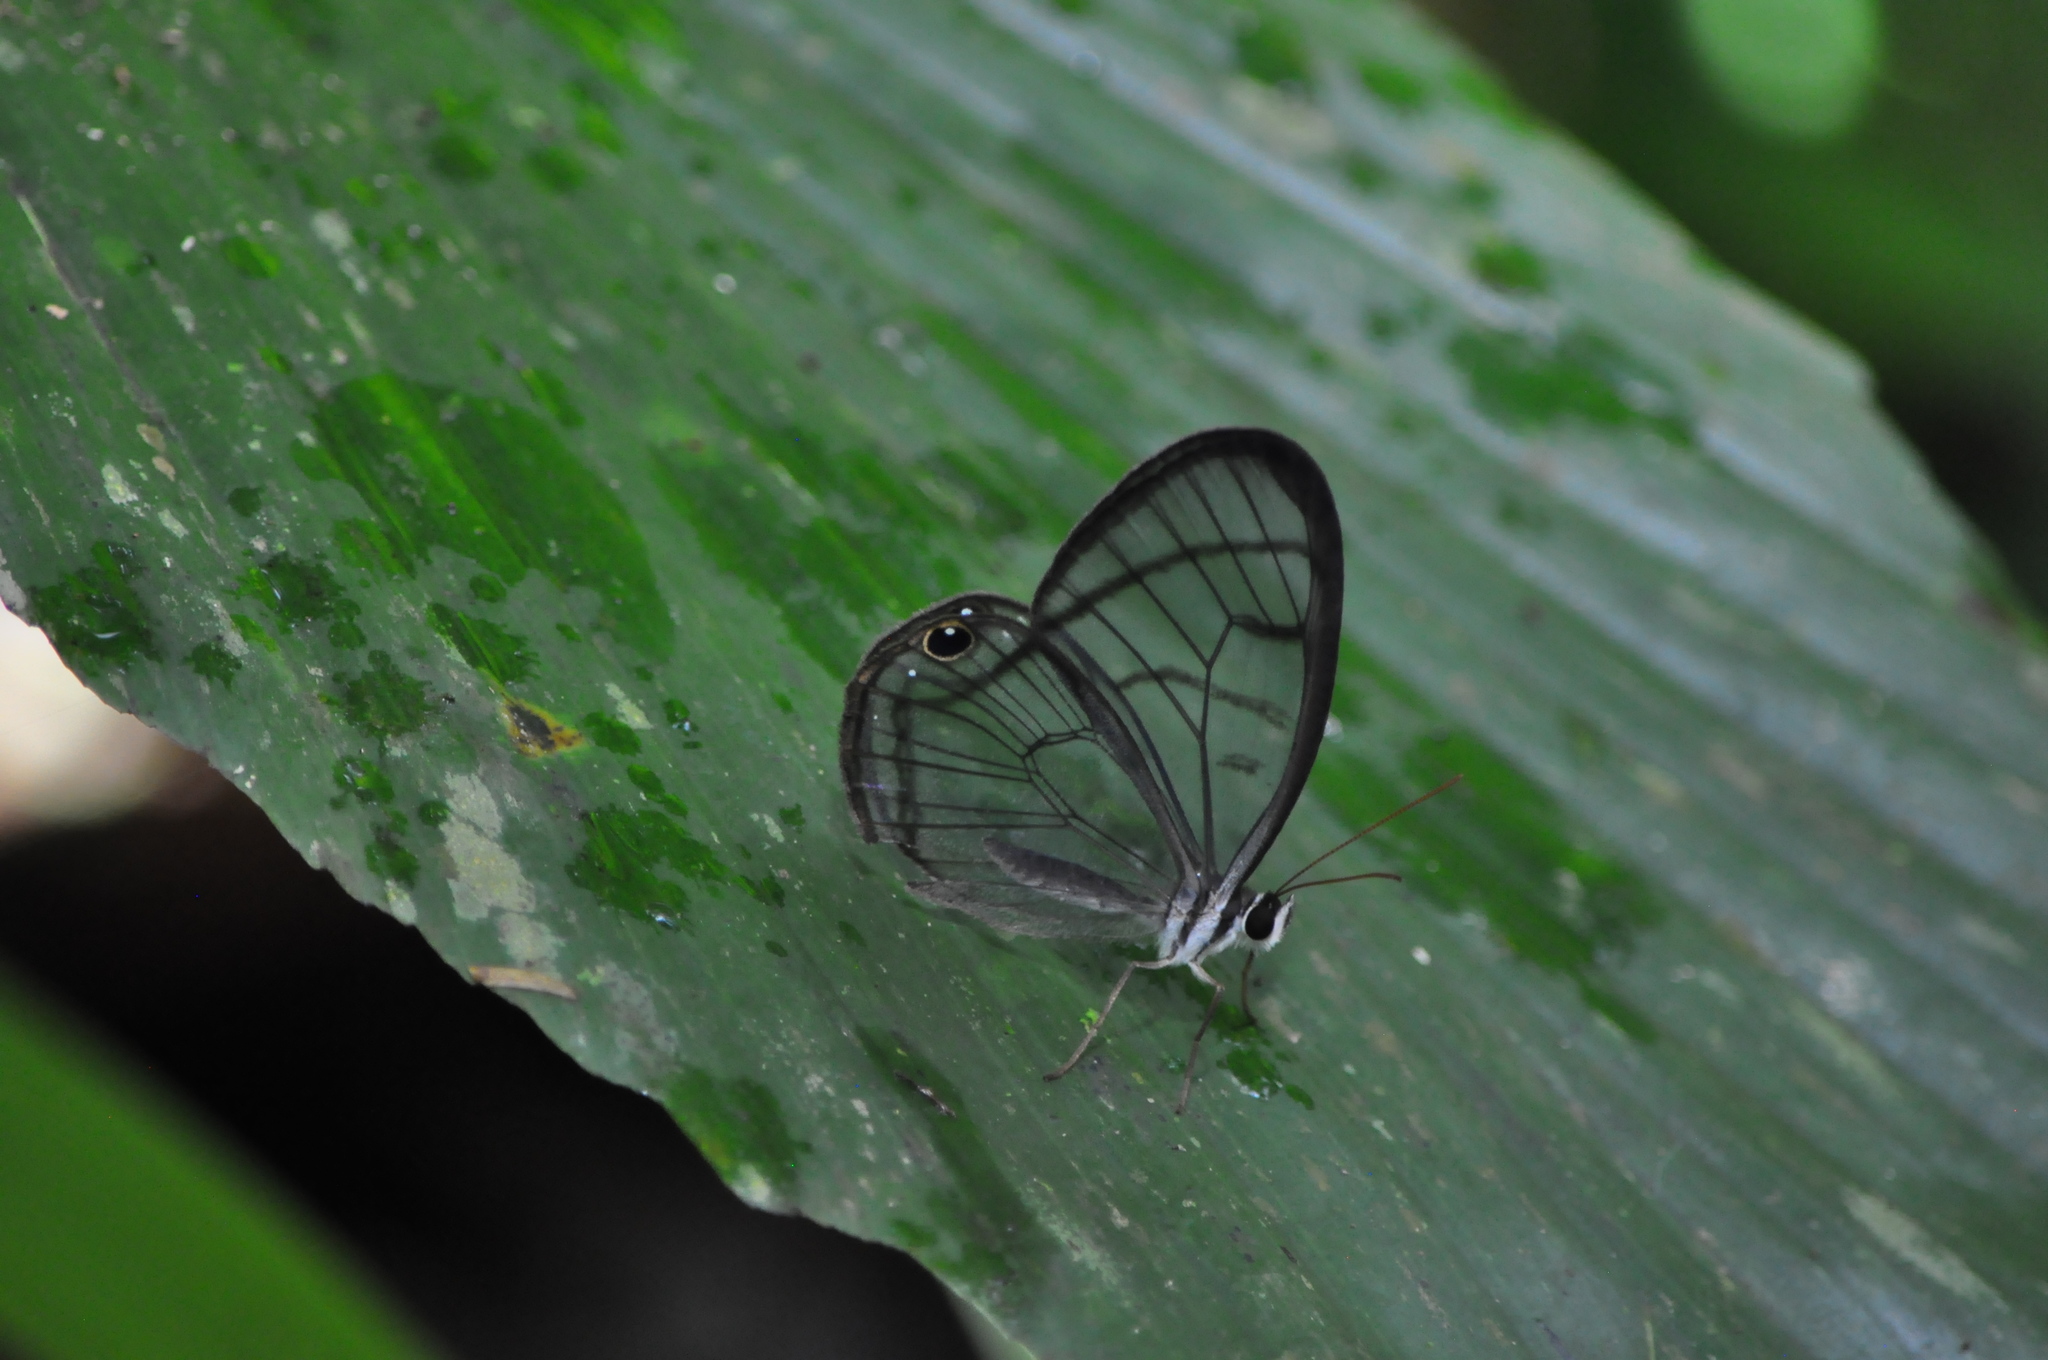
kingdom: Animalia
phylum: Arthropoda
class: Insecta
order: Lepidoptera
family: Nymphalidae
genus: Dulcedo
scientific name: Dulcedo polita
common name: Uncolored clearwing-satyr
